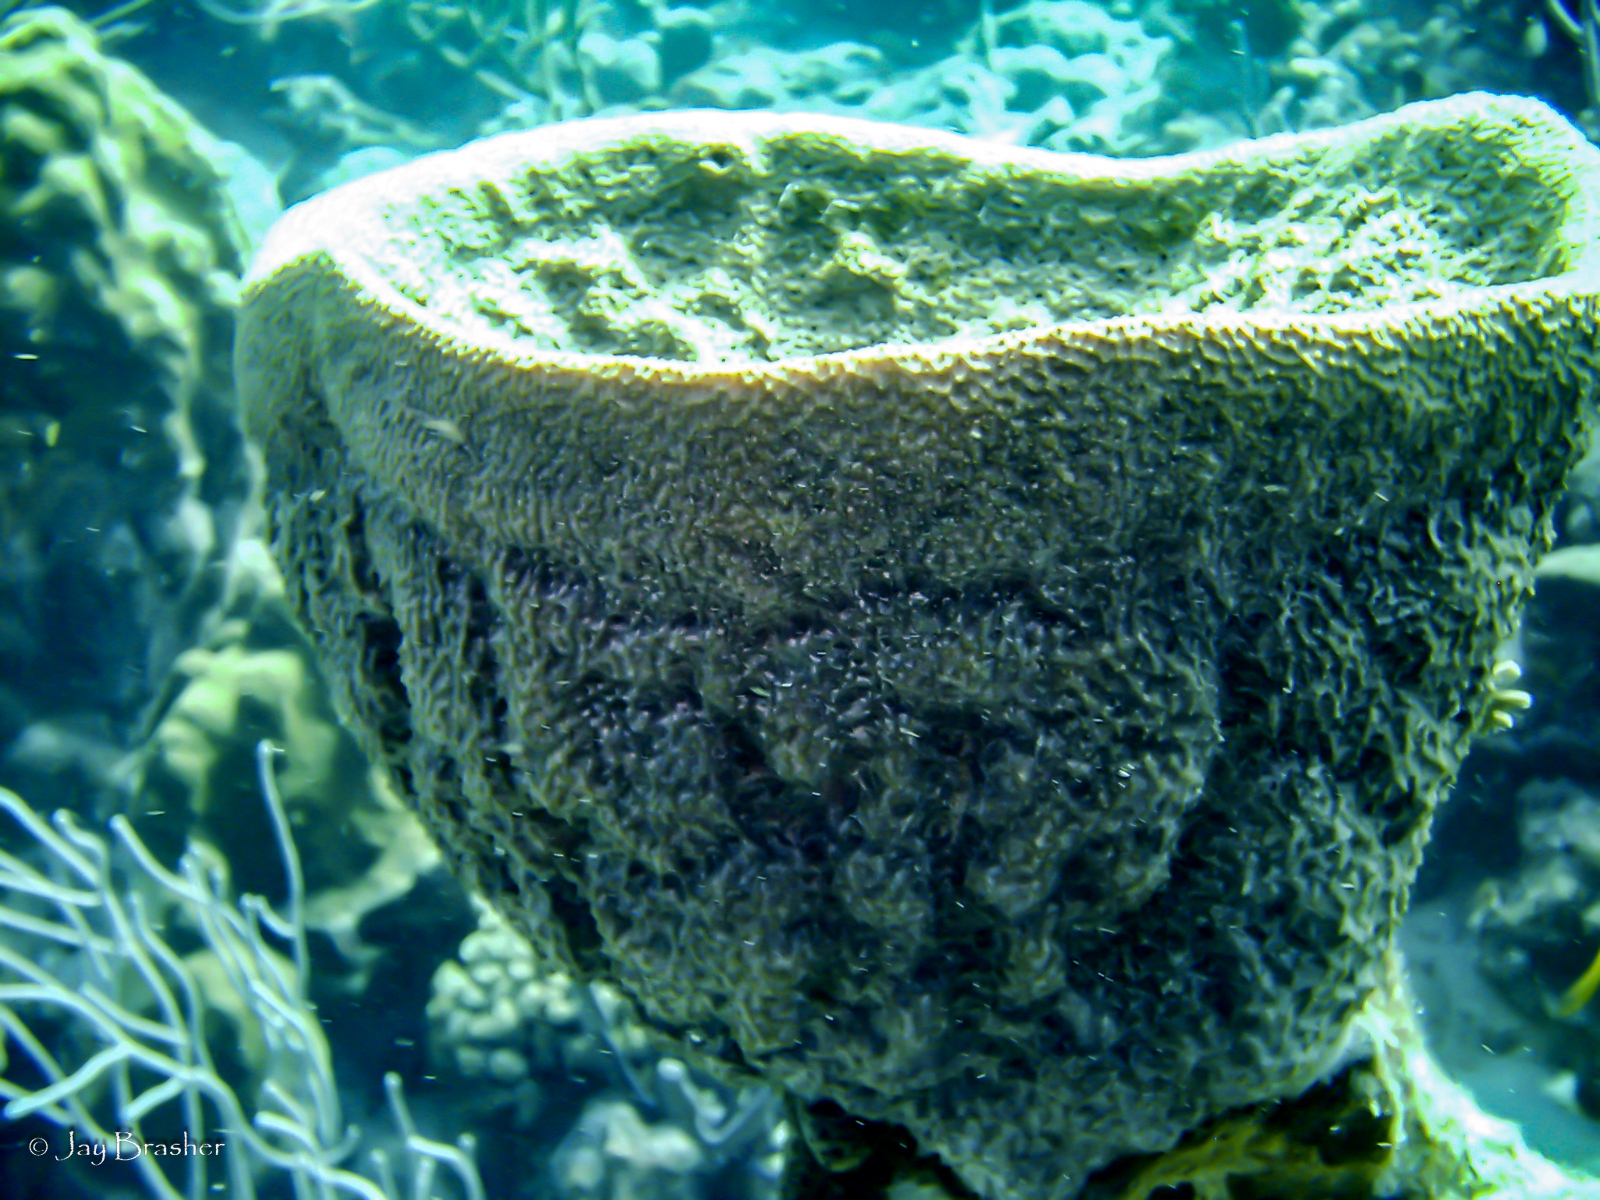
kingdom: Animalia
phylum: Porifera
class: Demospongiae
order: Dictyoceratida
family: Irciniidae
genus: Ircinia
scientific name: Ircinia campana
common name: Vase sponge
